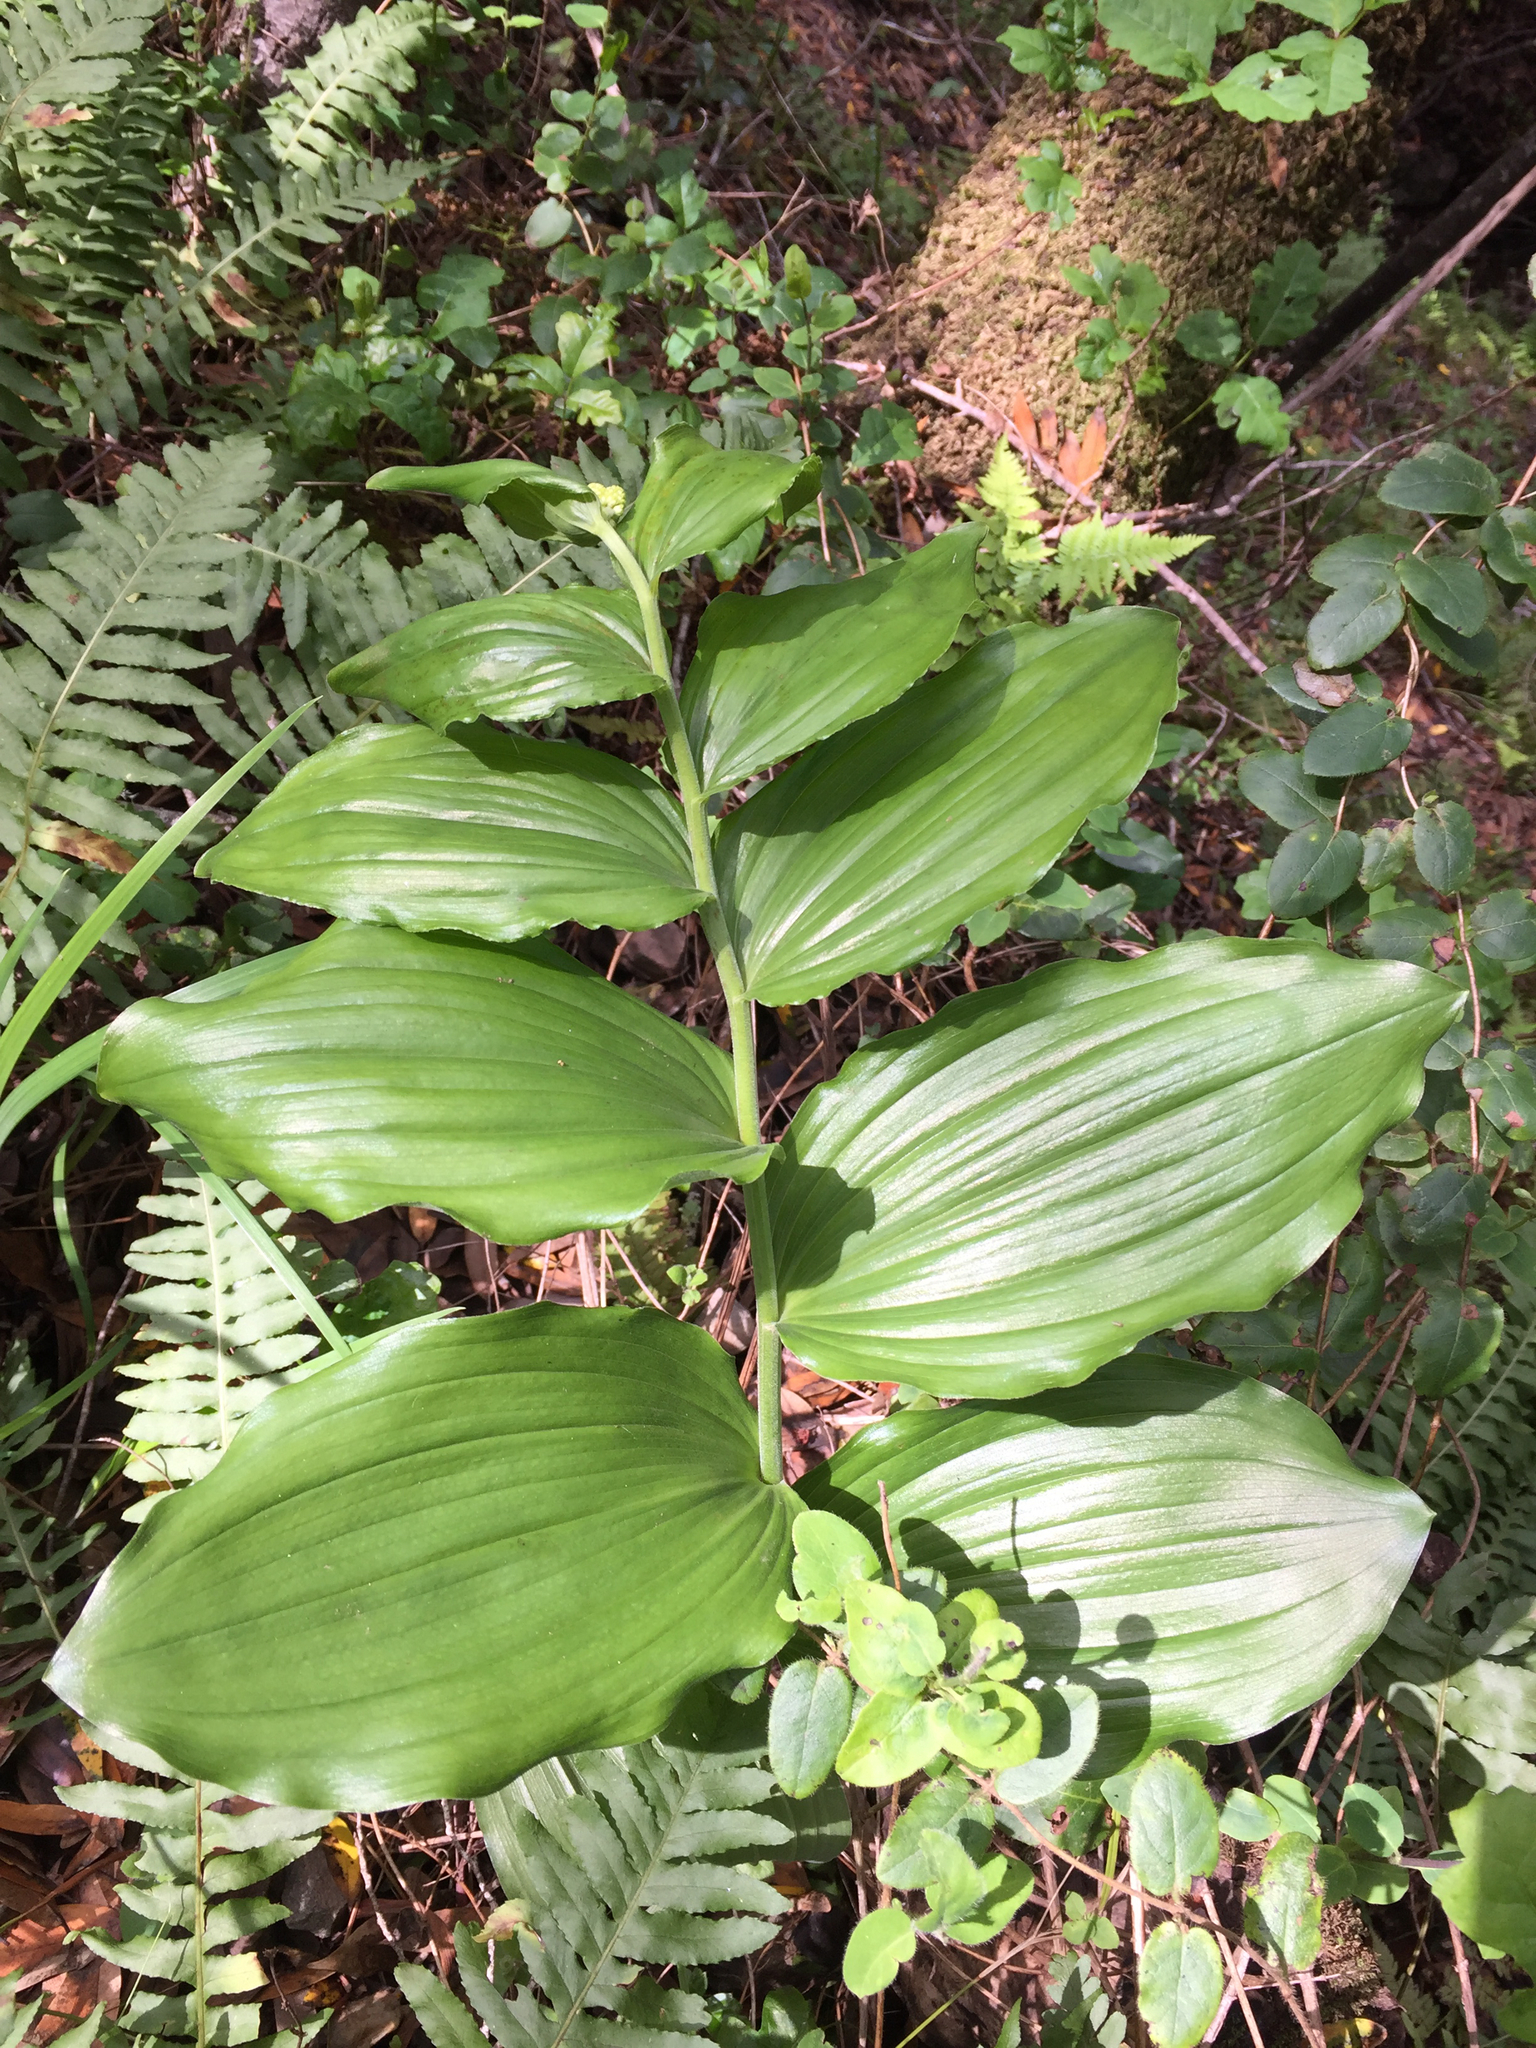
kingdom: Plantae
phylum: Tracheophyta
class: Liliopsida
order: Asparagales
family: Asparagaceae
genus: Maianthemum
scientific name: Maianthemum racemosum
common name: False spikenard
